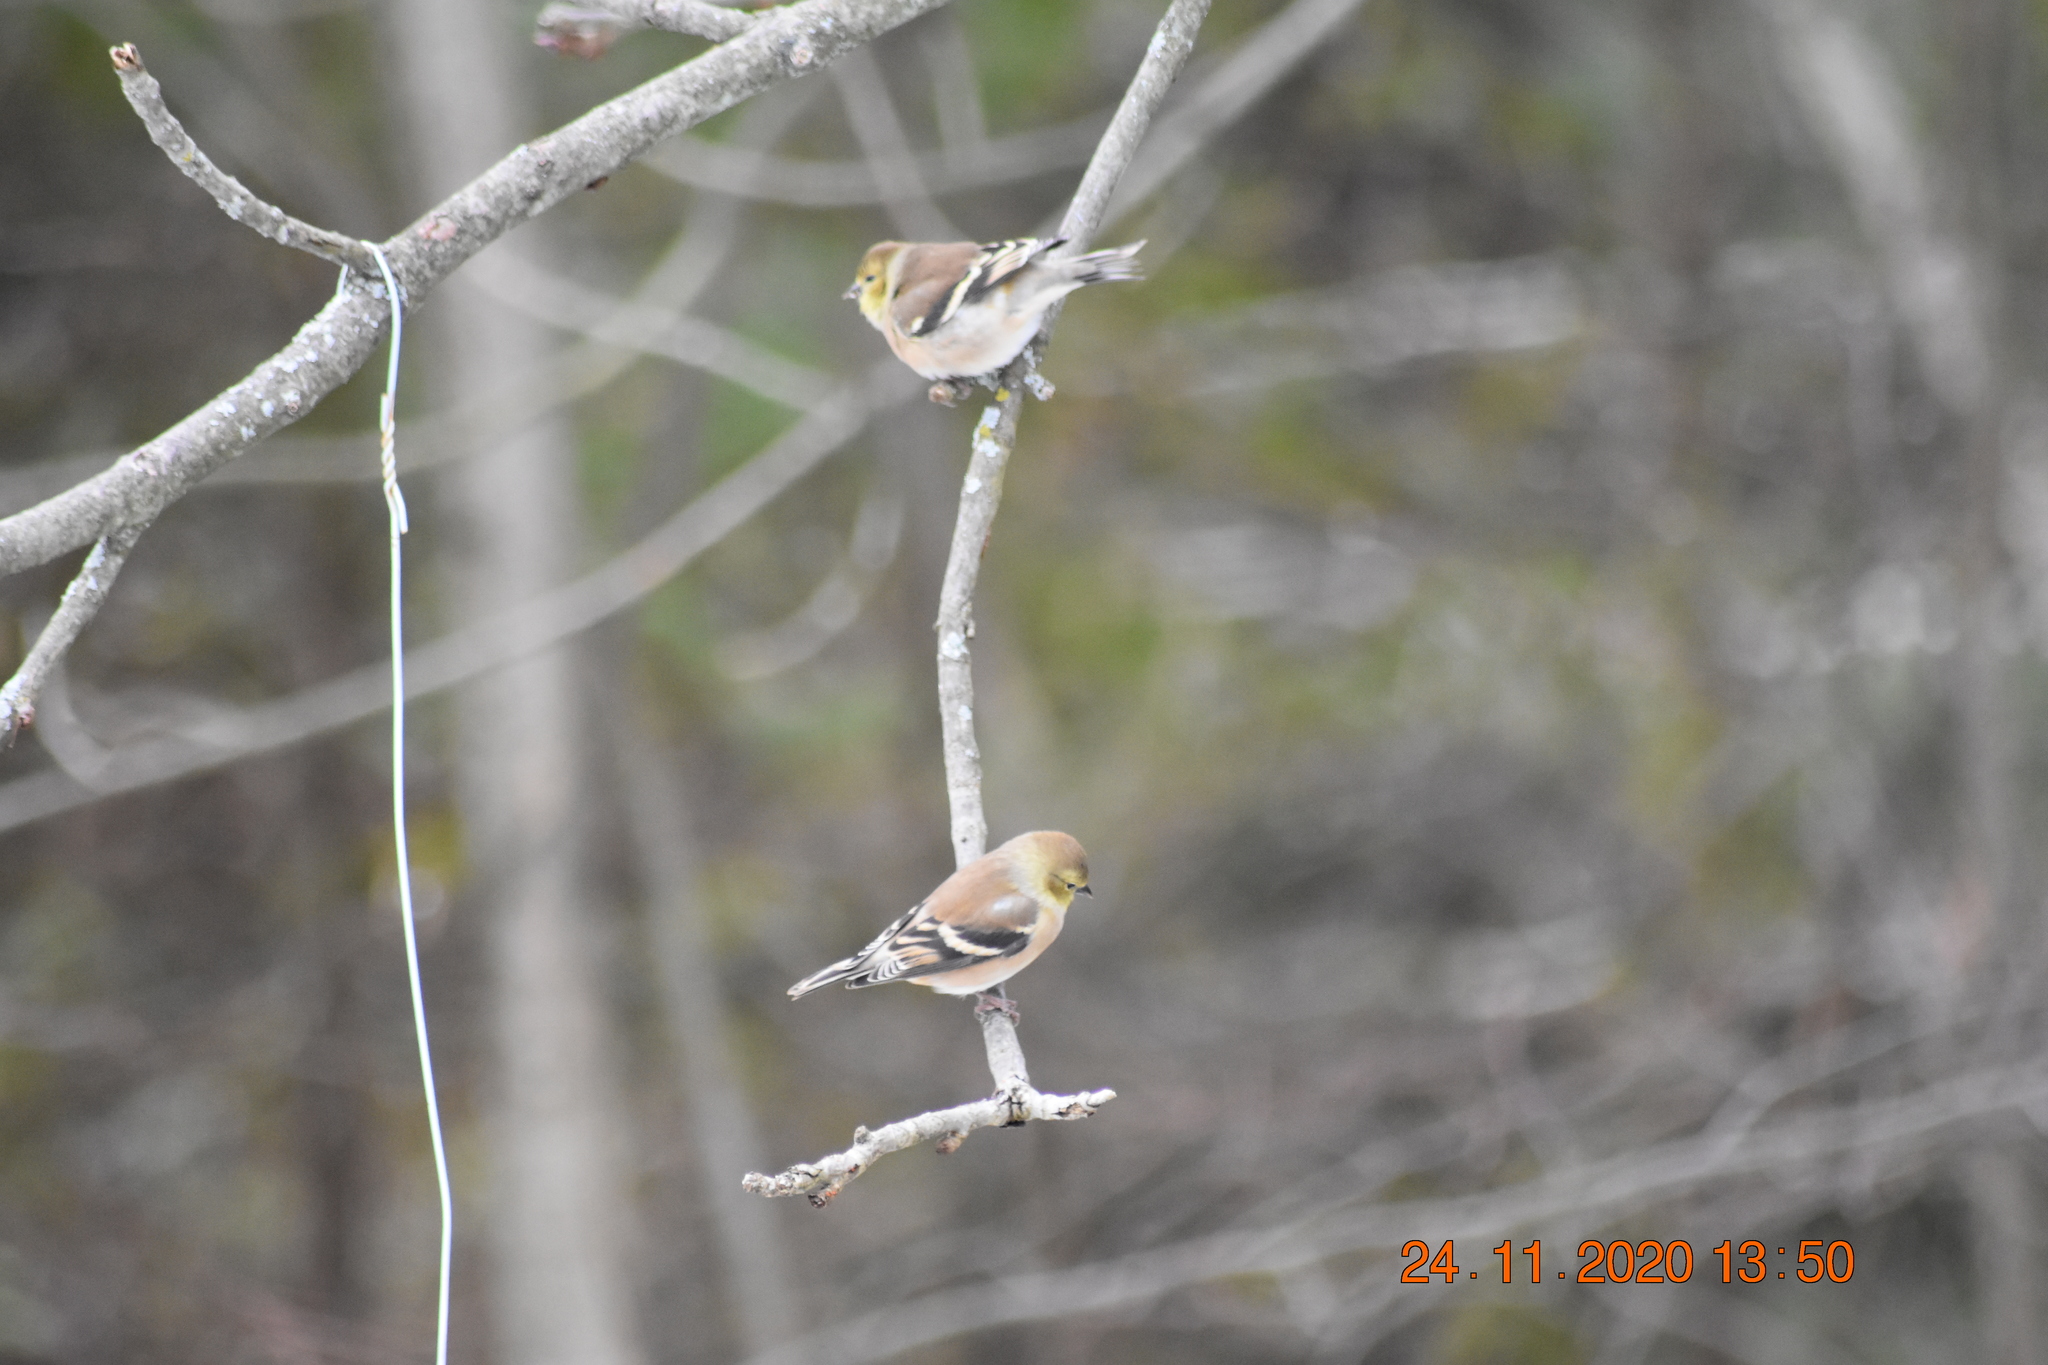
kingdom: Animalia
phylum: Chordata
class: Aves
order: Passeriformes
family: Fringillidae
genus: Spinus
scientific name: Spinus tristis
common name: American goldfinch
